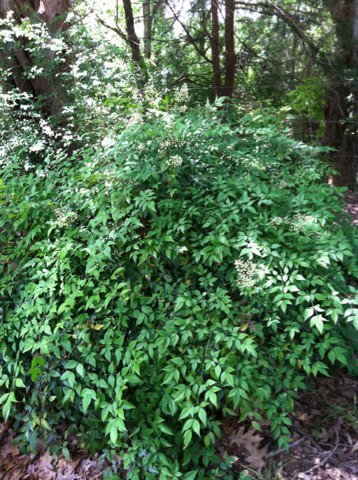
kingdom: Plantae
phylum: Tracheophyta
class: Magnoliopsida
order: Ranunculales
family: Berberidaceae
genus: Nandina
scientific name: Nandina domestica
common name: Sacred bamboo
